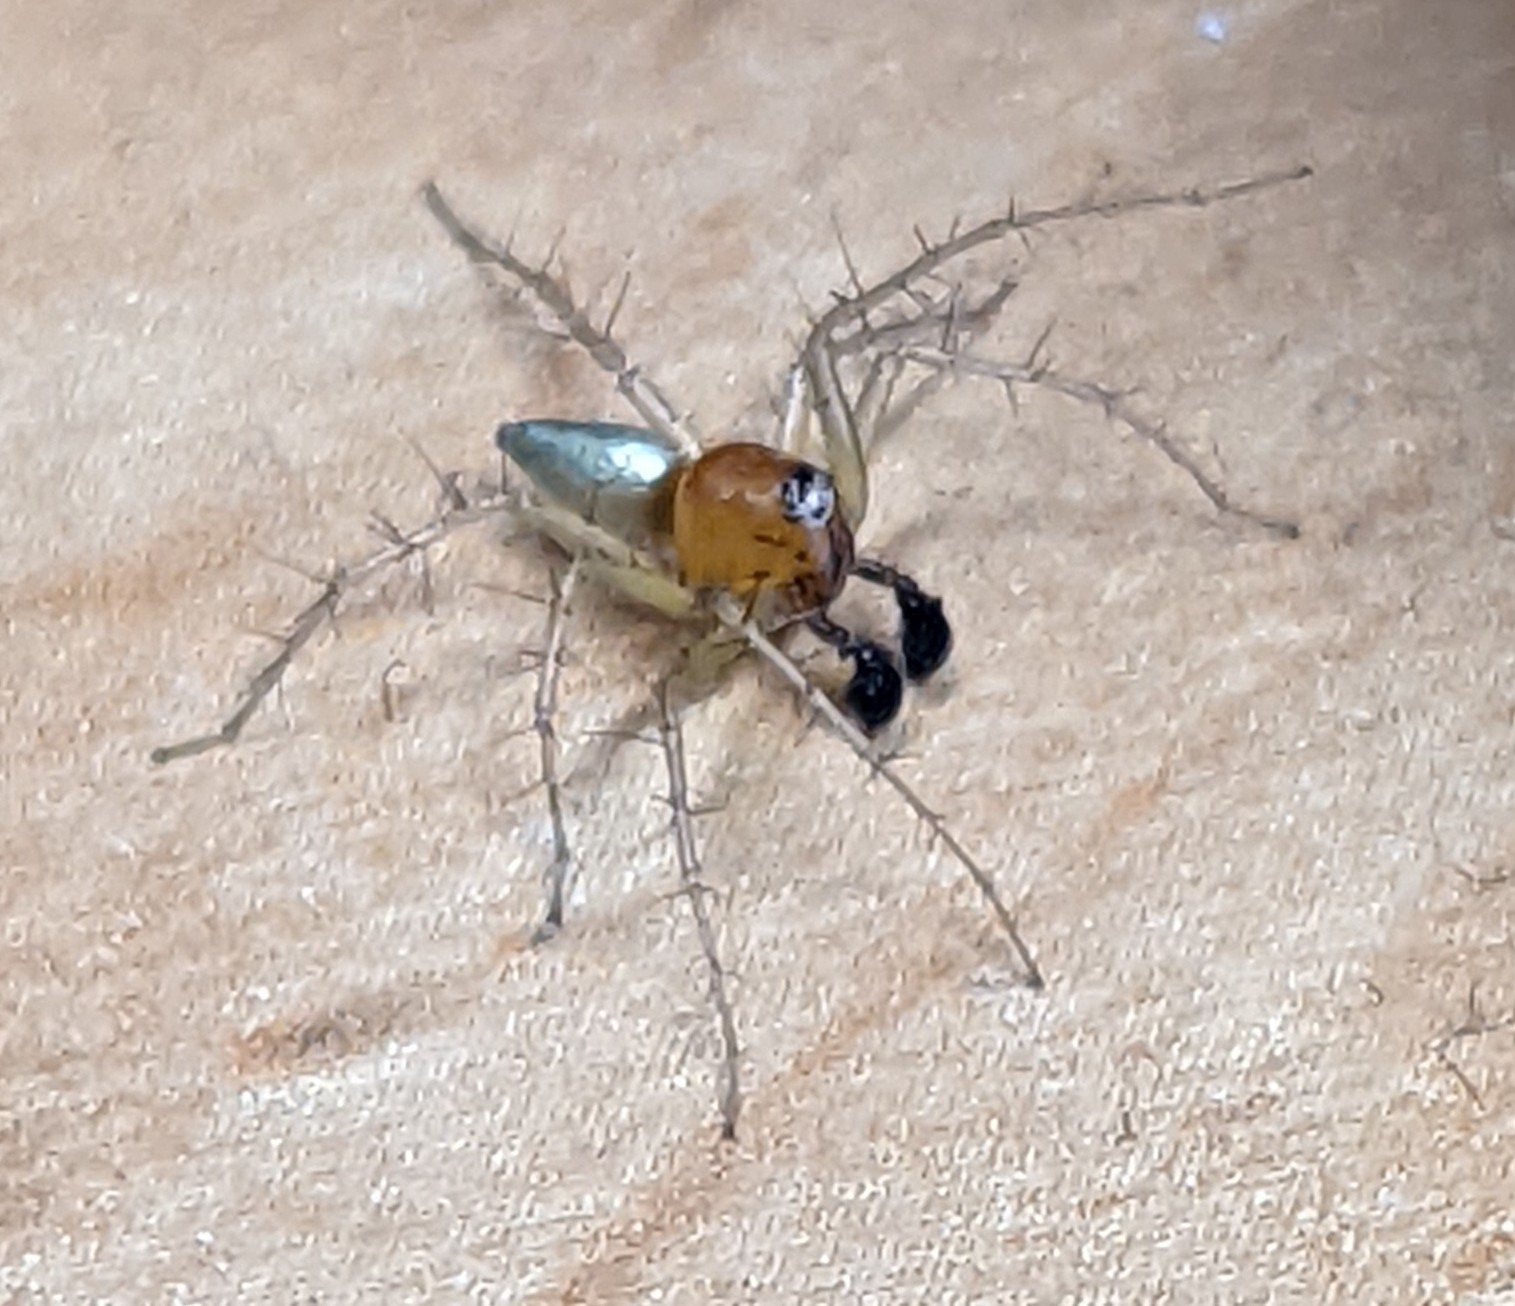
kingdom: Animalia
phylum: Arthropoda
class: Arachnida
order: Araneae
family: Oxyopidae
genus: Oxyopes
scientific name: Oxyopes salticus
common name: Lynx spiders
